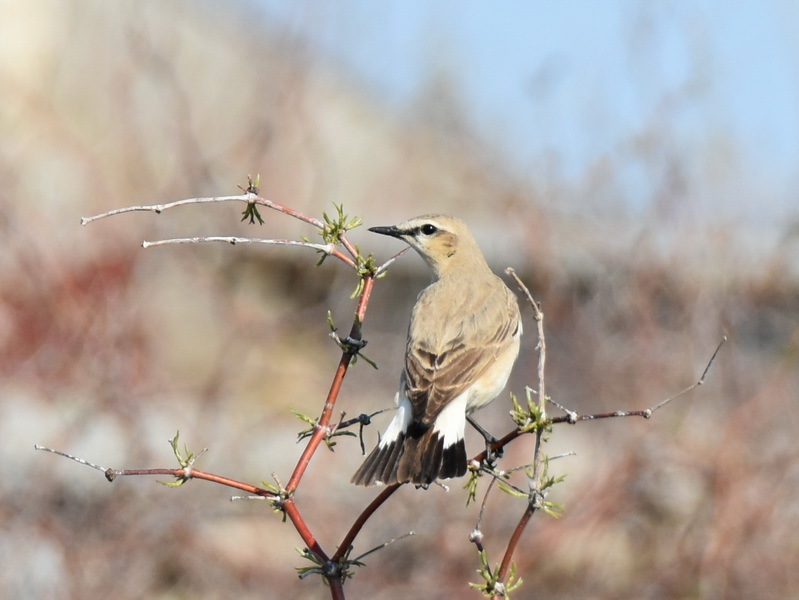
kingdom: Animalia
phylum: Chordata
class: Aves
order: Passeriformes
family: Muscicapidae
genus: Oenanthe
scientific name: Oenanthe isabellina
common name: Isabelline wheatear
